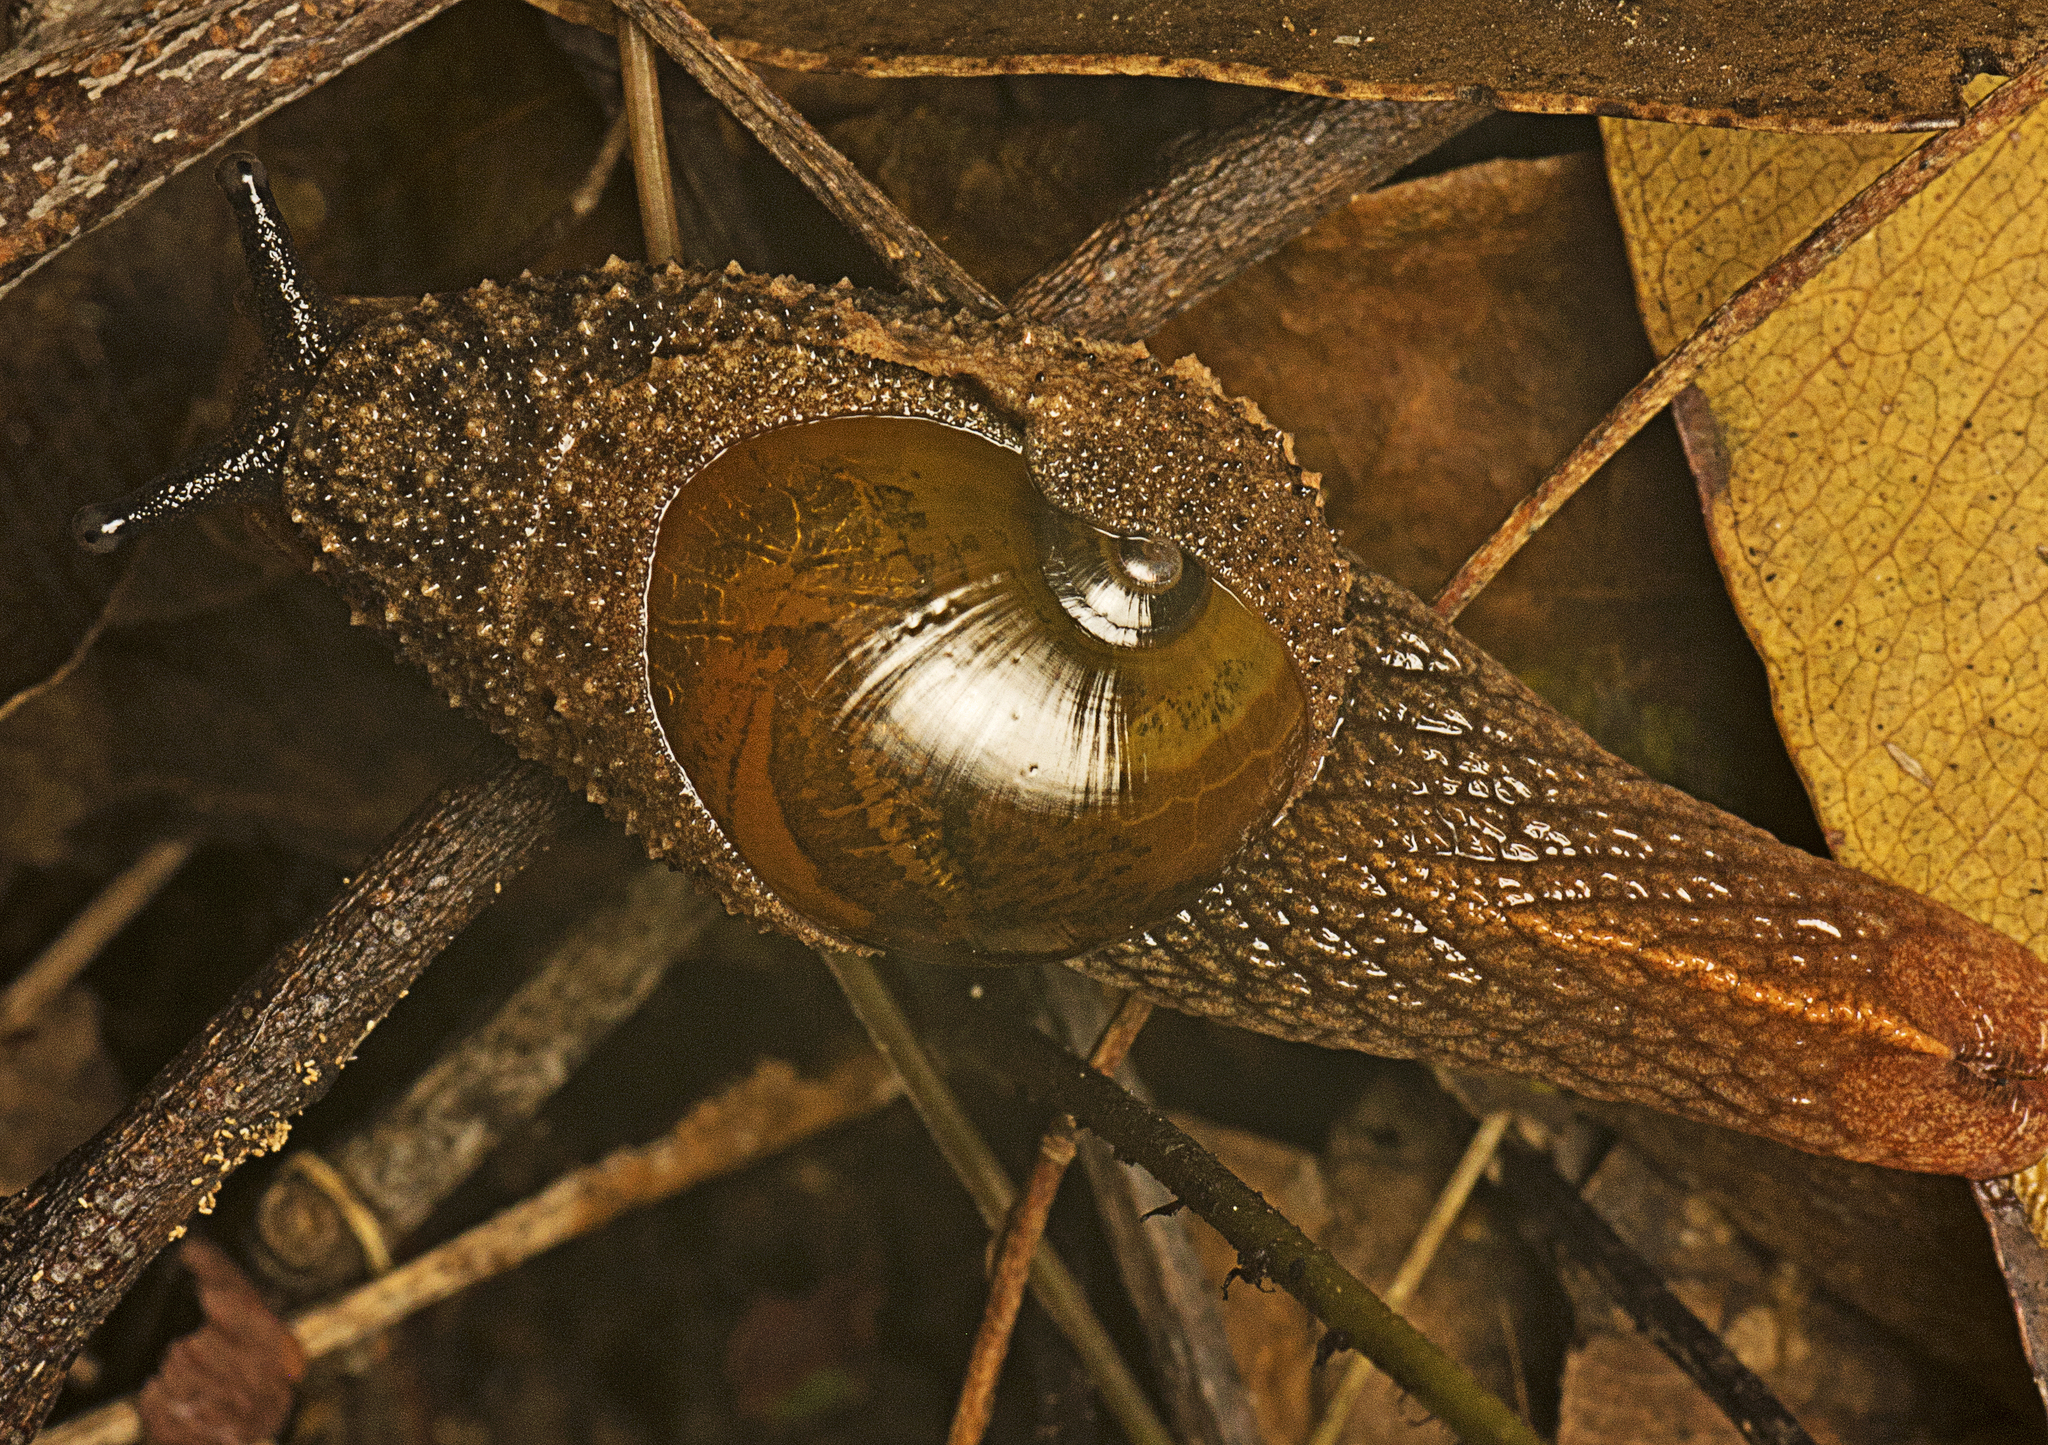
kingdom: Animalia
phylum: Mollusca
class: Gastropoda
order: Stylommatophora
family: Helicarionidae
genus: Stanisicarion
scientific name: Stanisicarion freycineti
